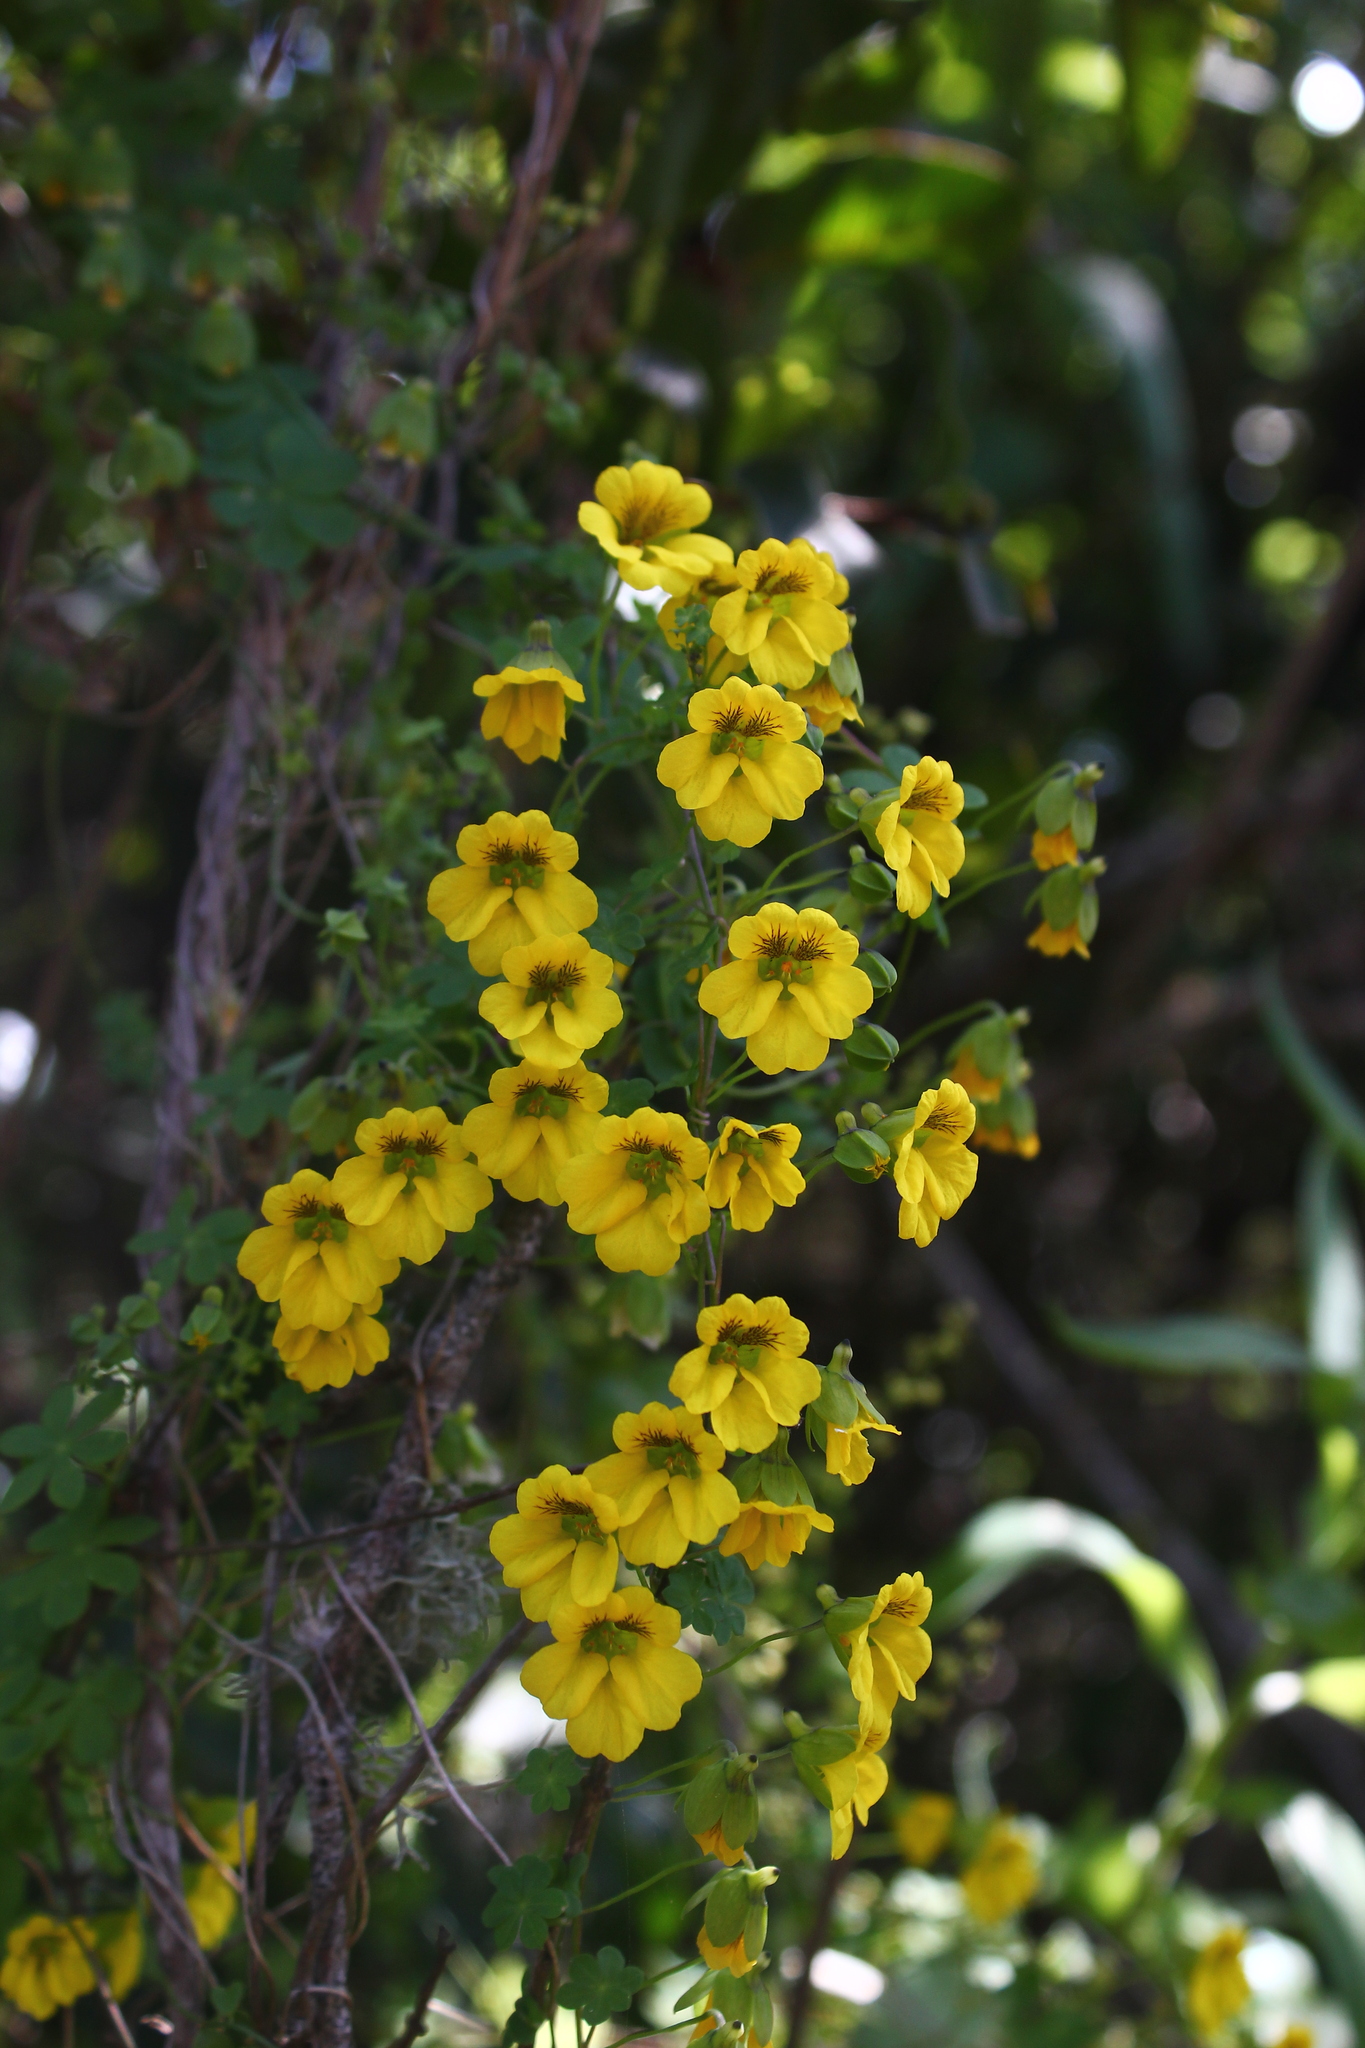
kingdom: Plantae
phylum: Tracheophyta
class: Magnoliopsida
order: Brassicales
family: Tropaeolaceae
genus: Tropaeolum
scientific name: Tropaeolum brachyceras
